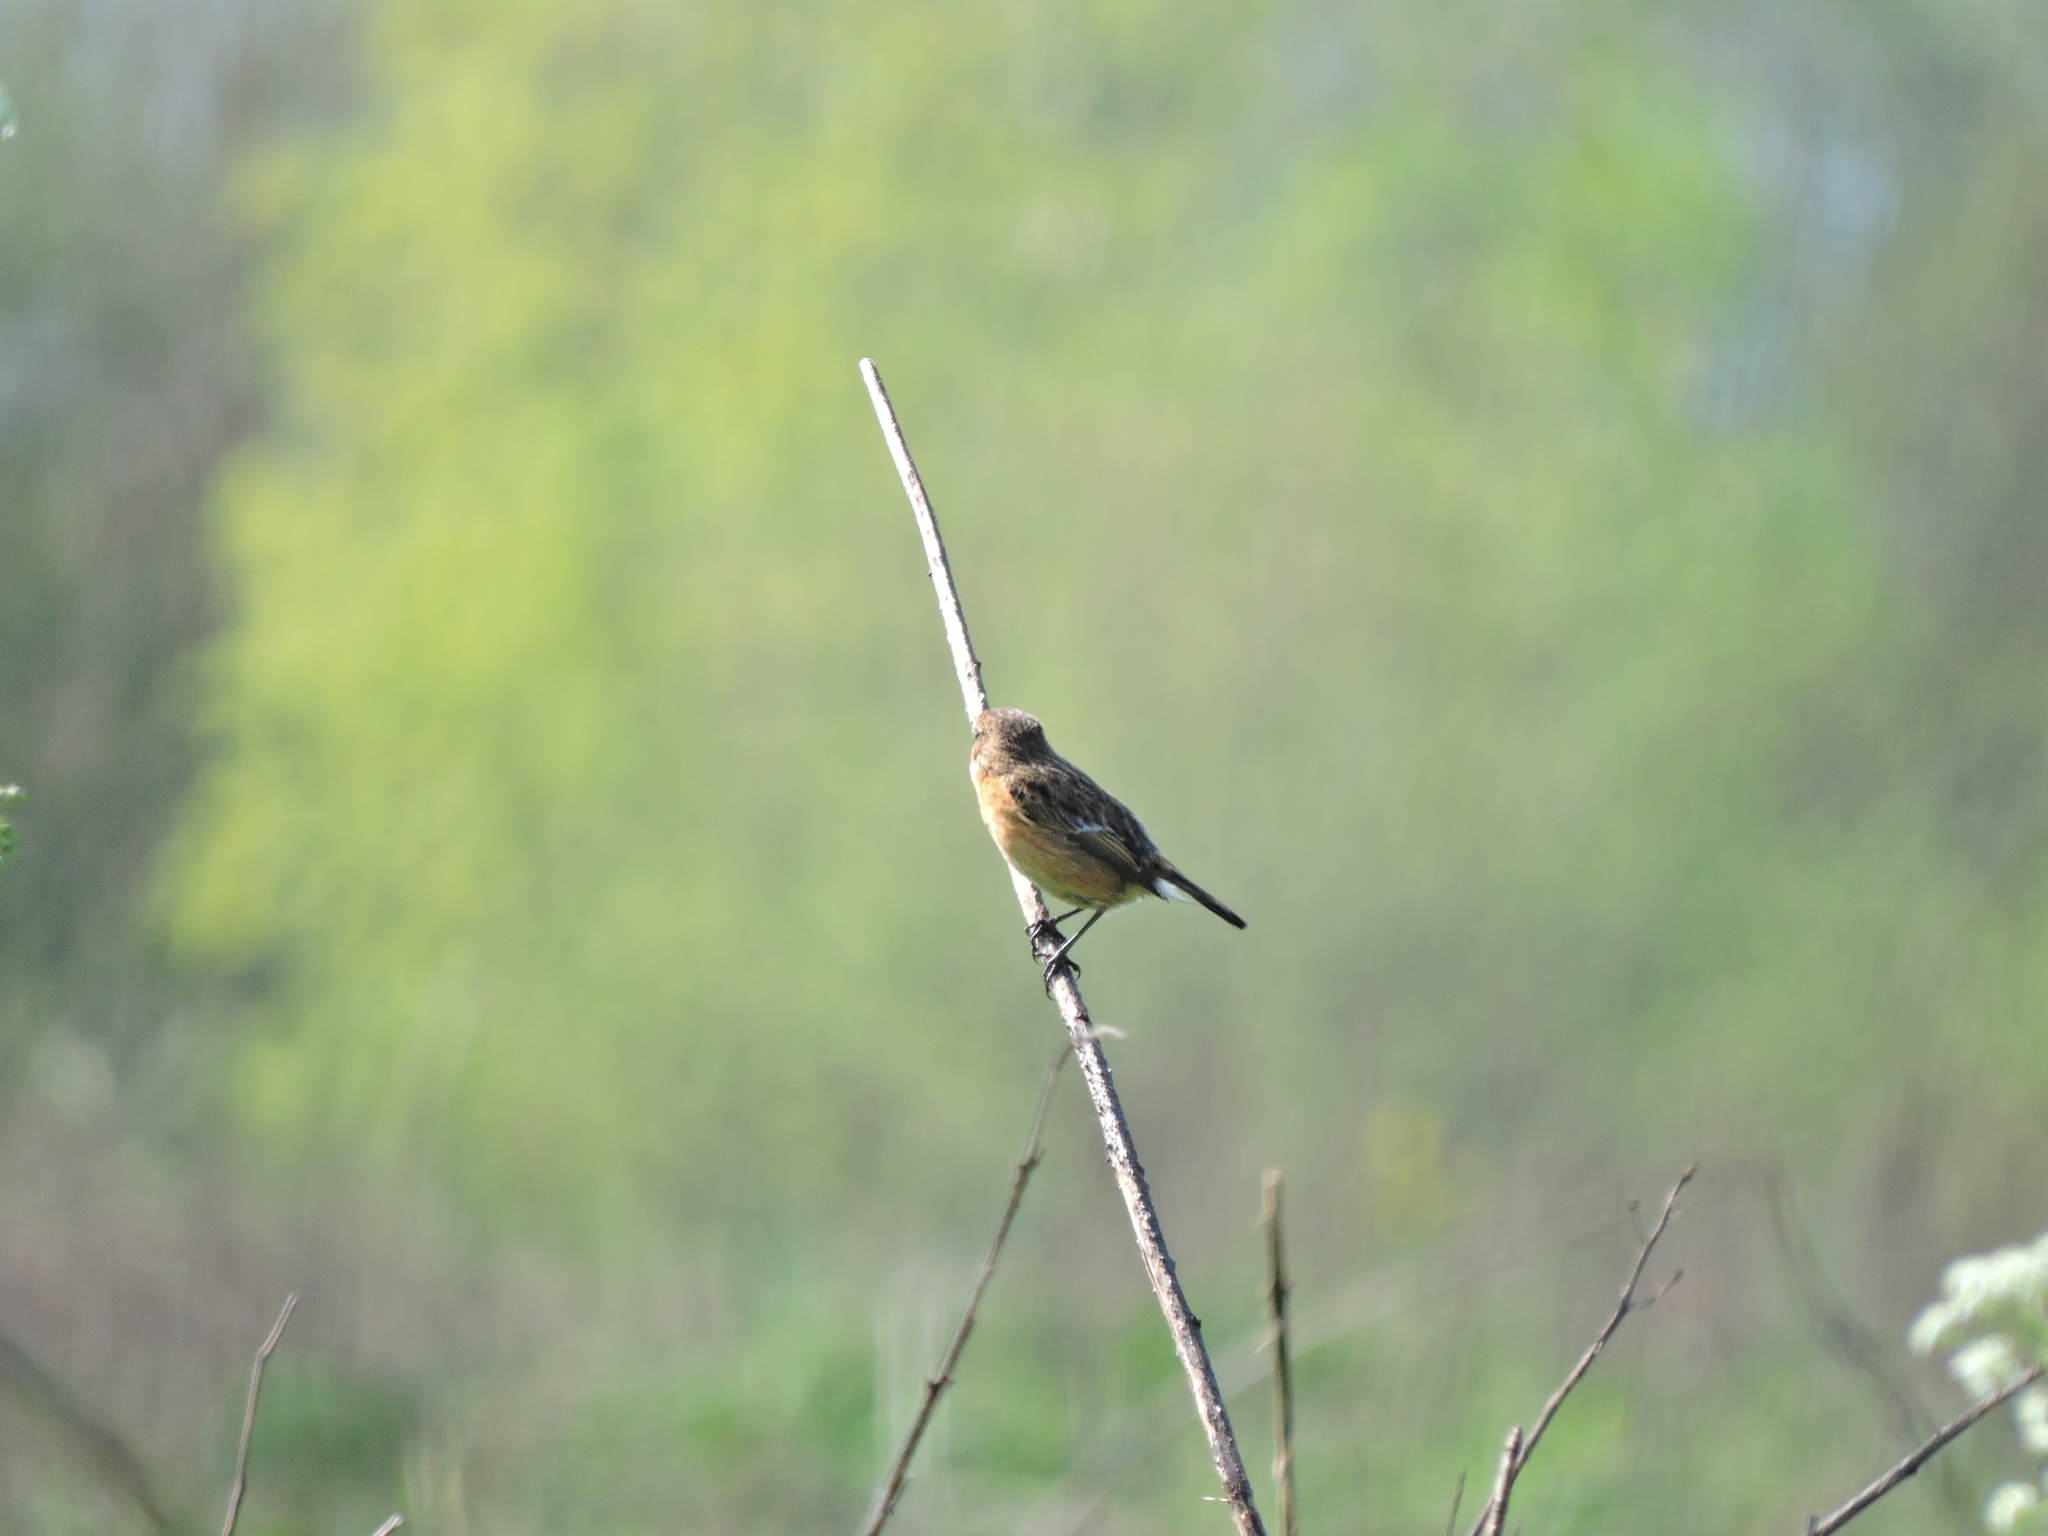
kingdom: Animalia
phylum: Chordata
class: Aves
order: Passeriformes
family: Muscicapidae
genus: Saxicola
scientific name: Saxicola rubicola
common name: European stonechat
